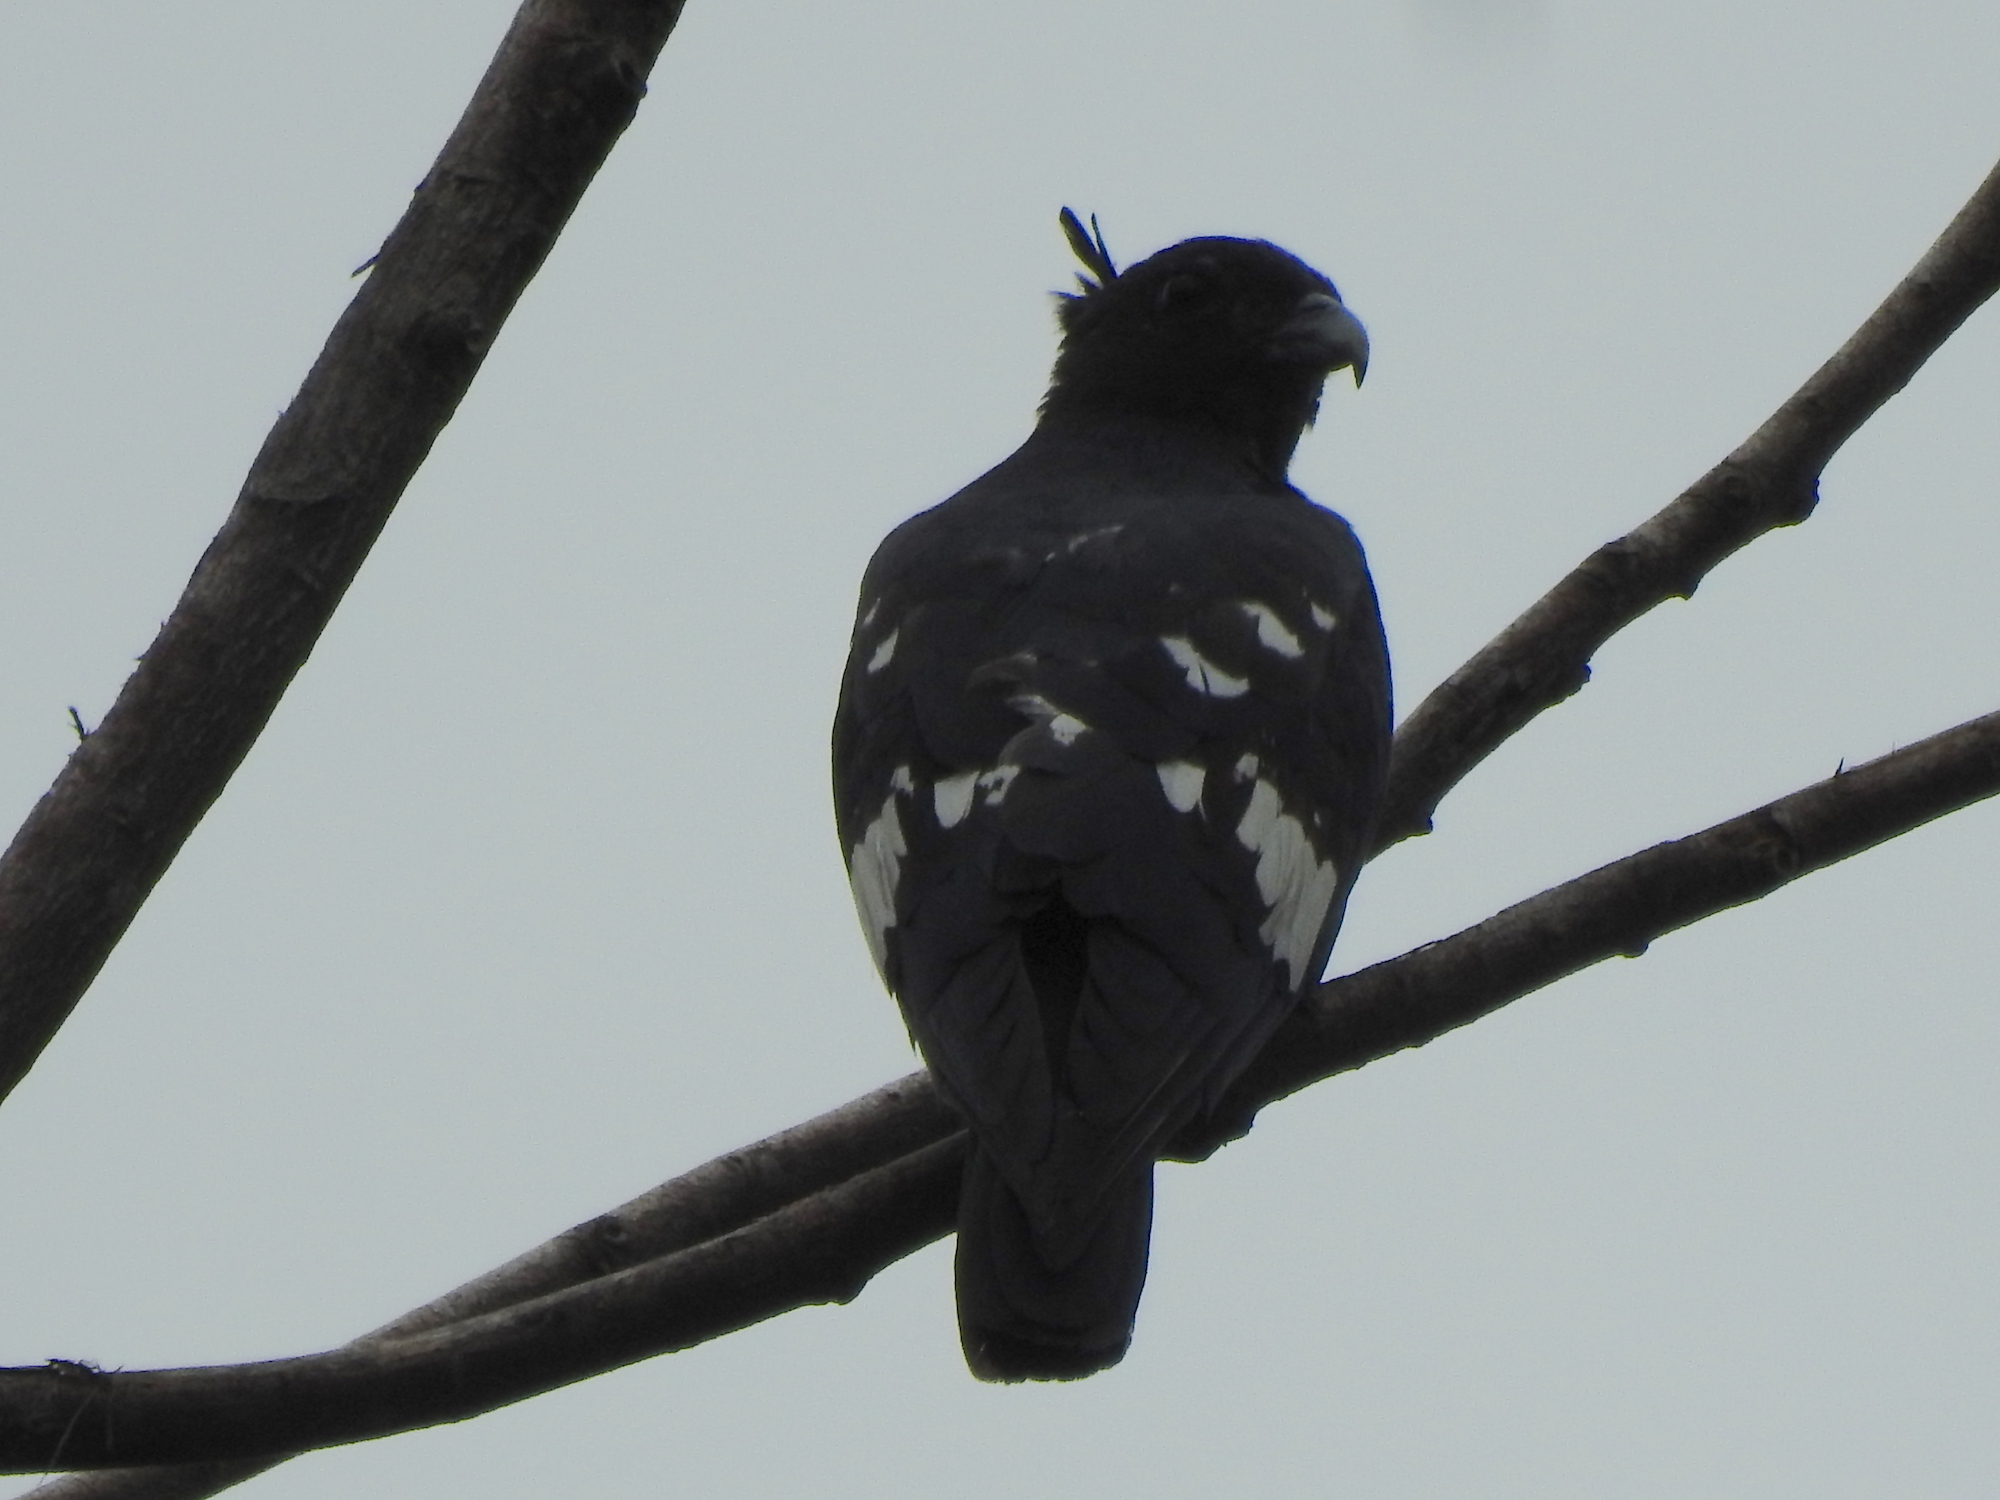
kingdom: Animalia
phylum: Chordata
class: Aves
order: Accipitriformes
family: Accipitridae
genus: Aviceda
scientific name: Aviceda leuphotes
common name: Black baza
